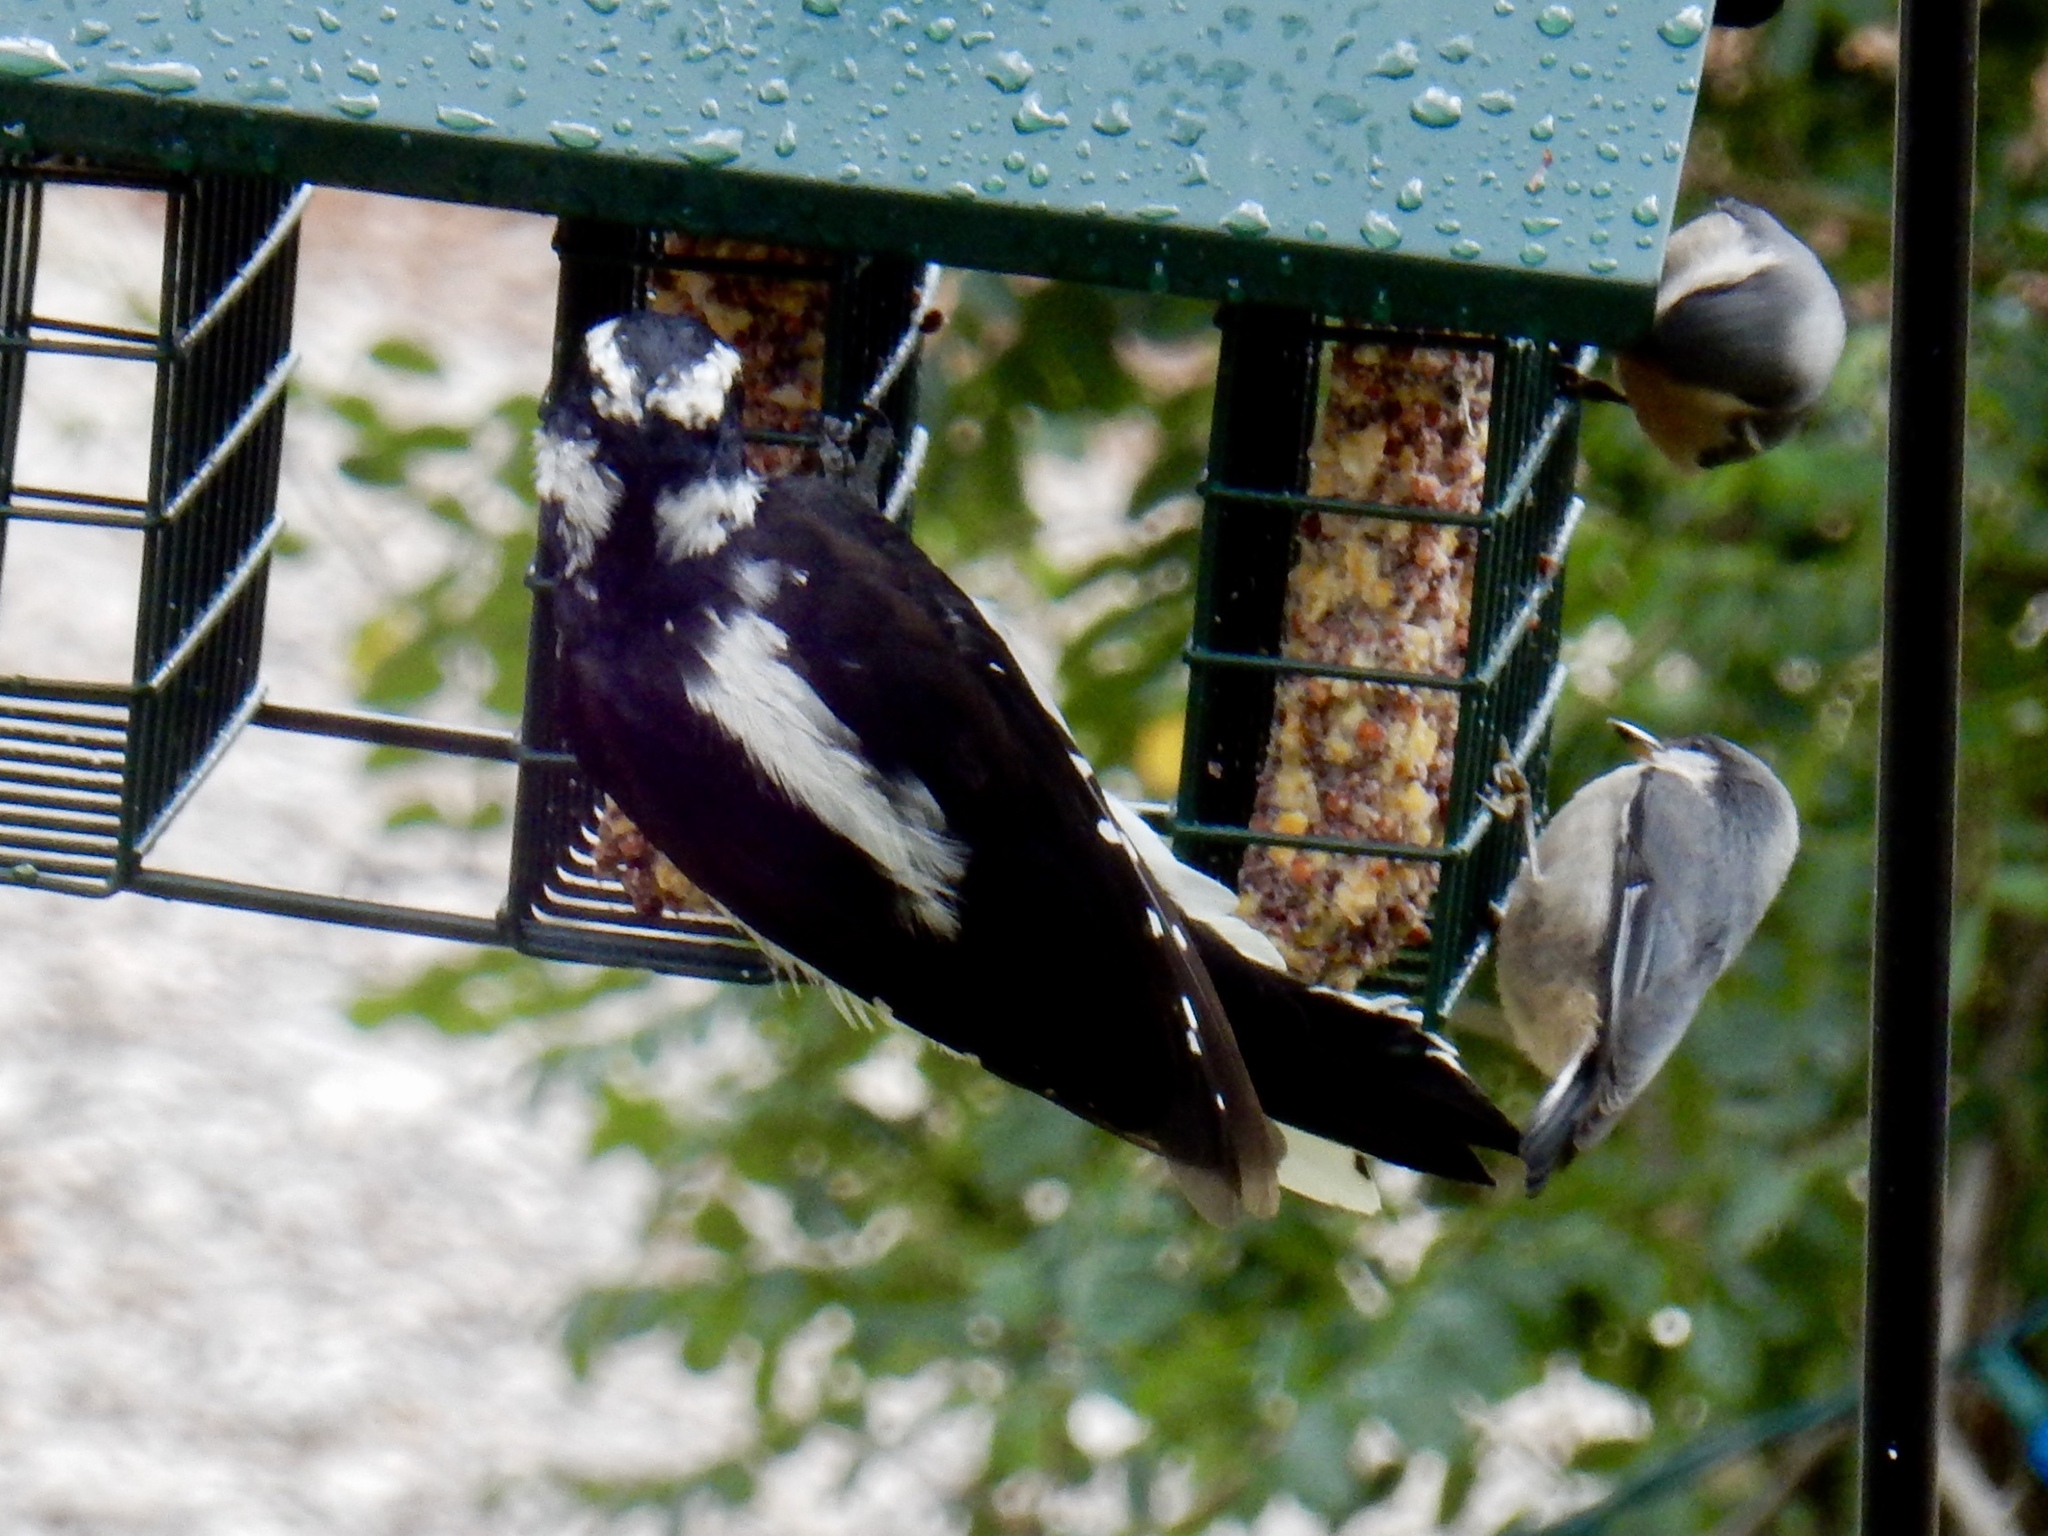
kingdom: Animalia
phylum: Chordata
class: Aves
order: Piciformes
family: Picidae
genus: Leuconotopicus
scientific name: Leuconotopicus villosus
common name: Hairy woodpecker
